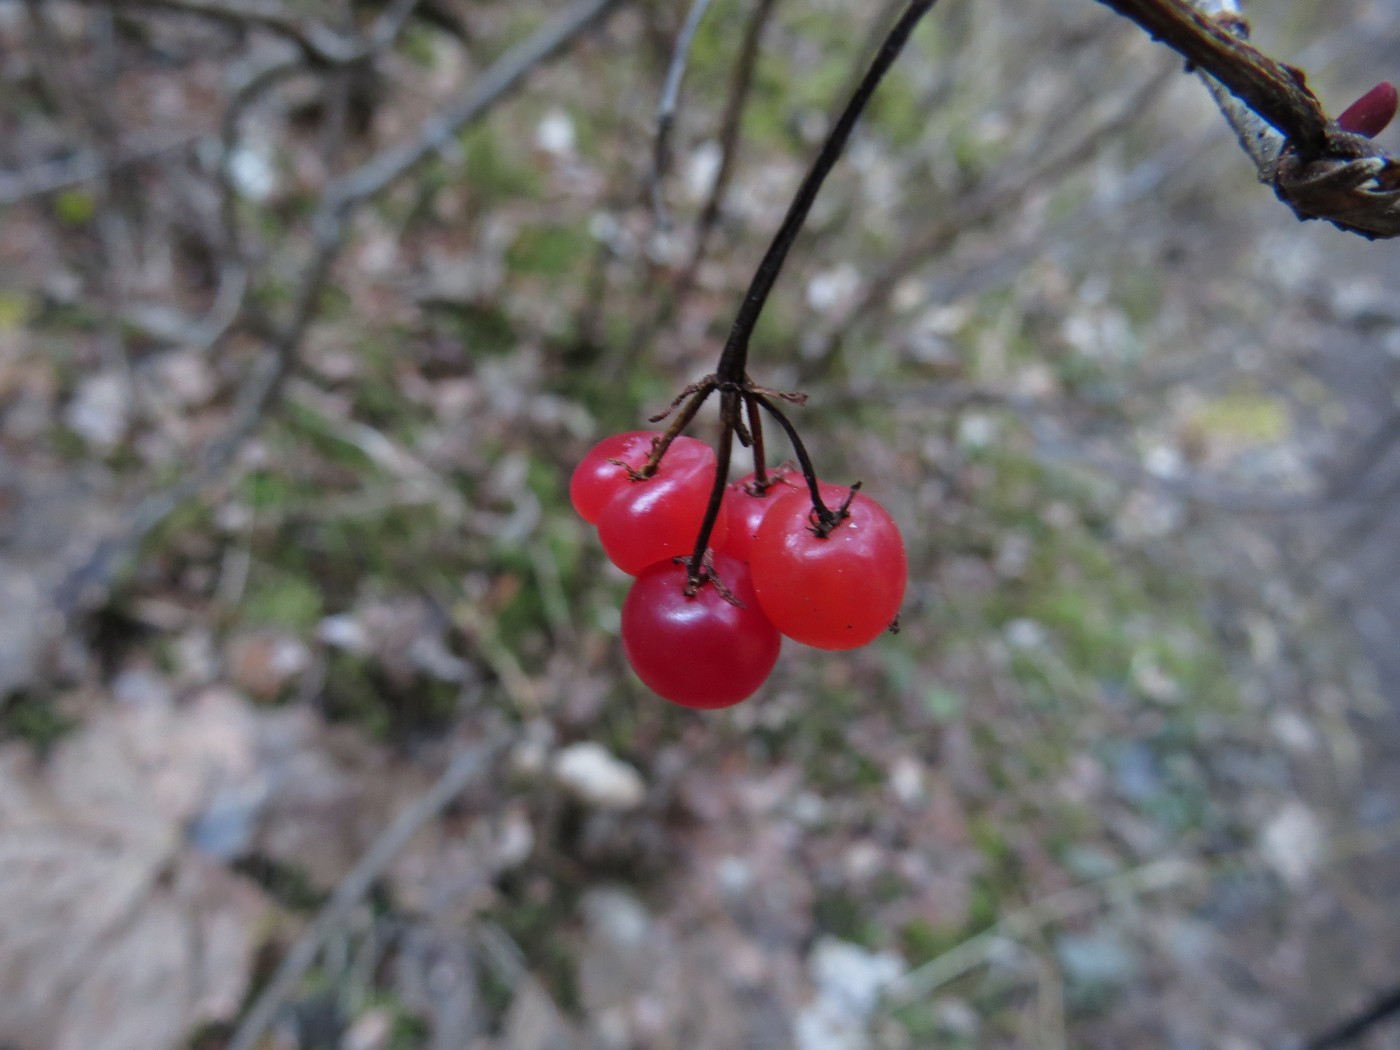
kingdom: Plantae
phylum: Tracheophyta
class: Magnoliopsida
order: Dipsacales
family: Viburnaceae
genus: Viburnum
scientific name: Viburnum edule
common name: Mooseberry
